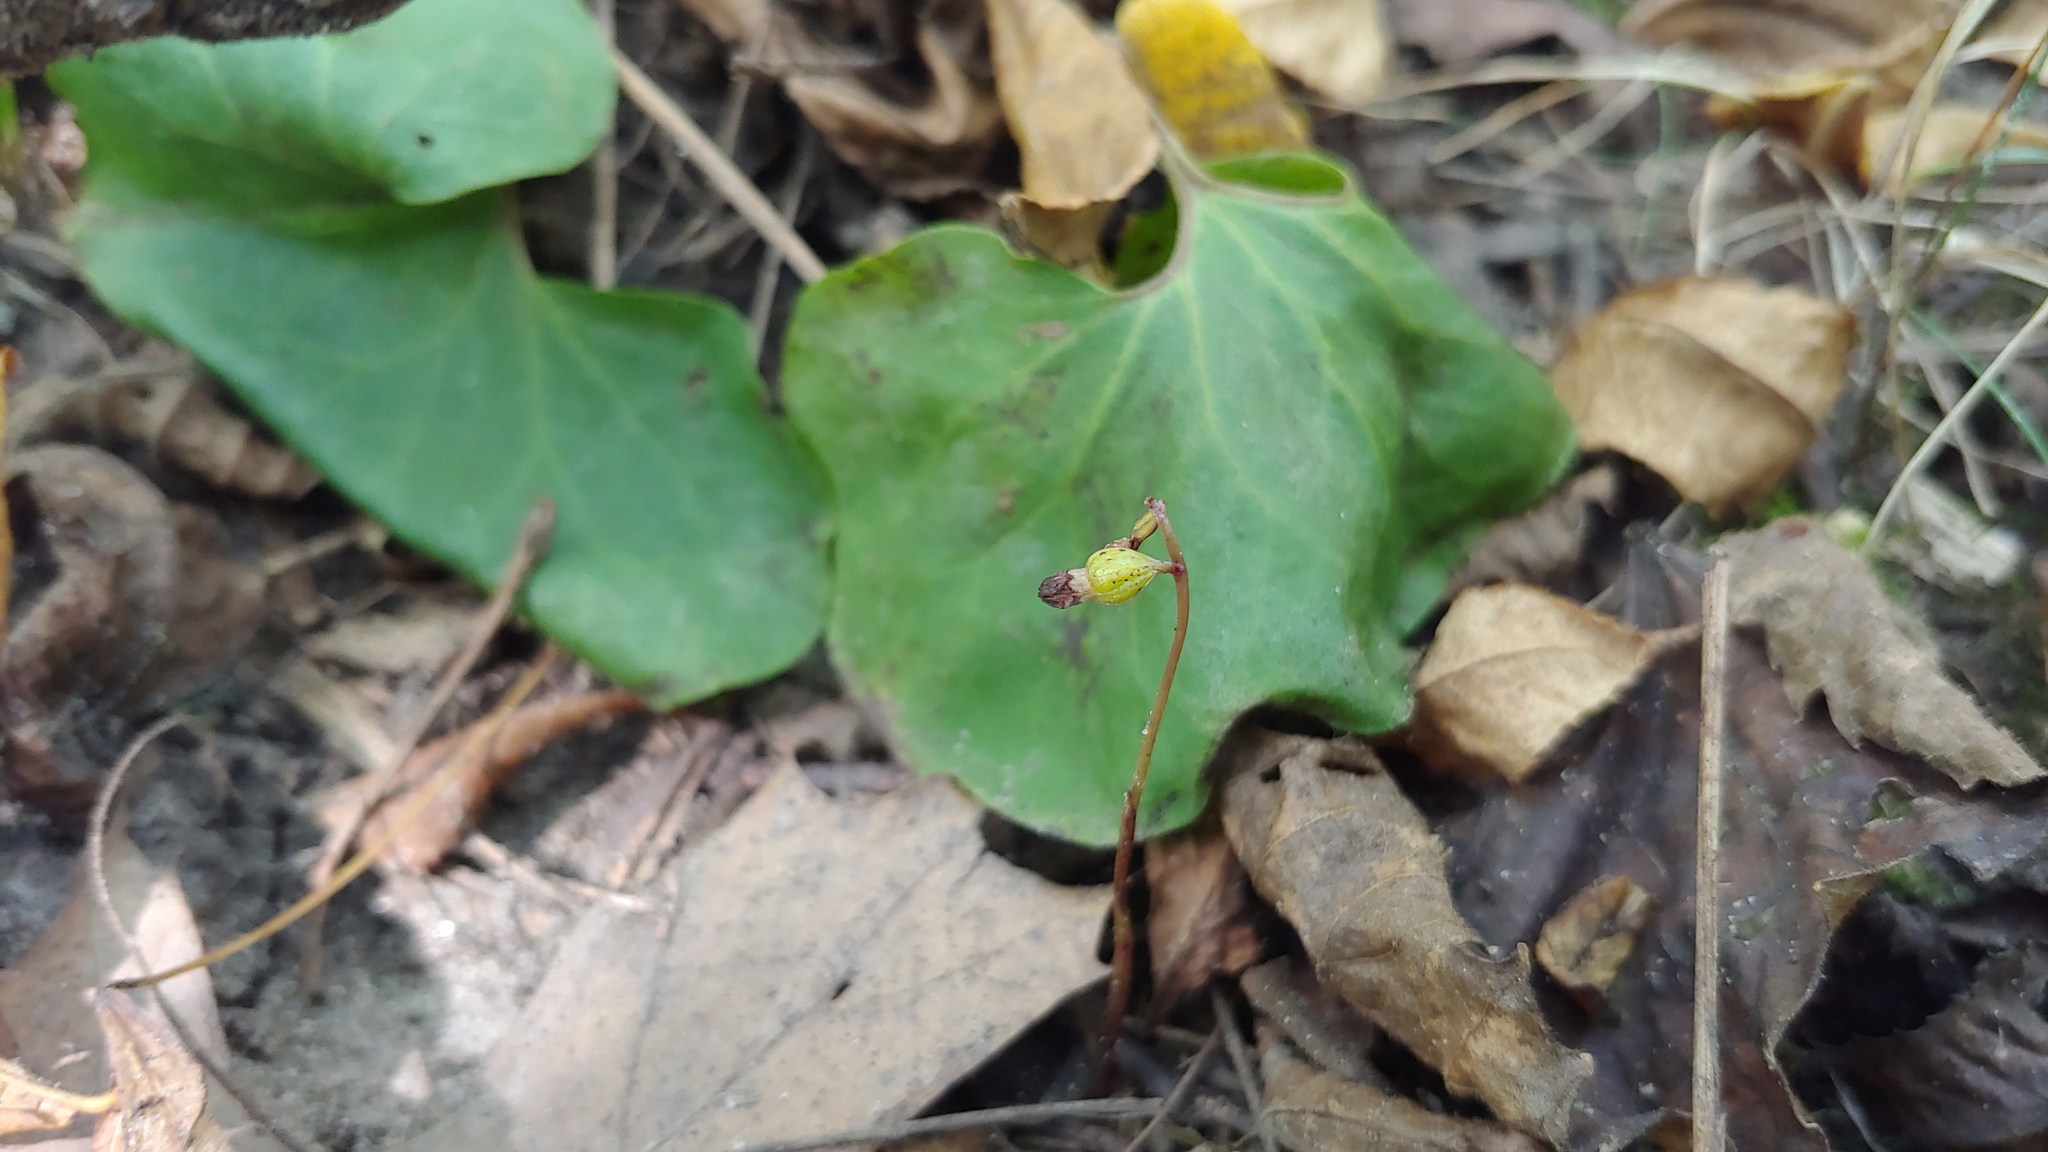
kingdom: Plantae
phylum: Tracheophyta
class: Liliopsida
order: Asparagales
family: Orchidaceae
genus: Corallorhiza
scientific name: Corallorhiza odontorhiza
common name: Autumn coralroot
